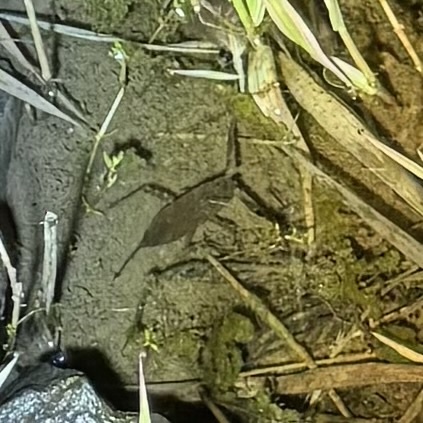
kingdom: Animalia
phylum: Arthropoda
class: Insecta
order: Hemiptera
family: Nepidae
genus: Laccotrephes
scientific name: Laccotrephes tristis
